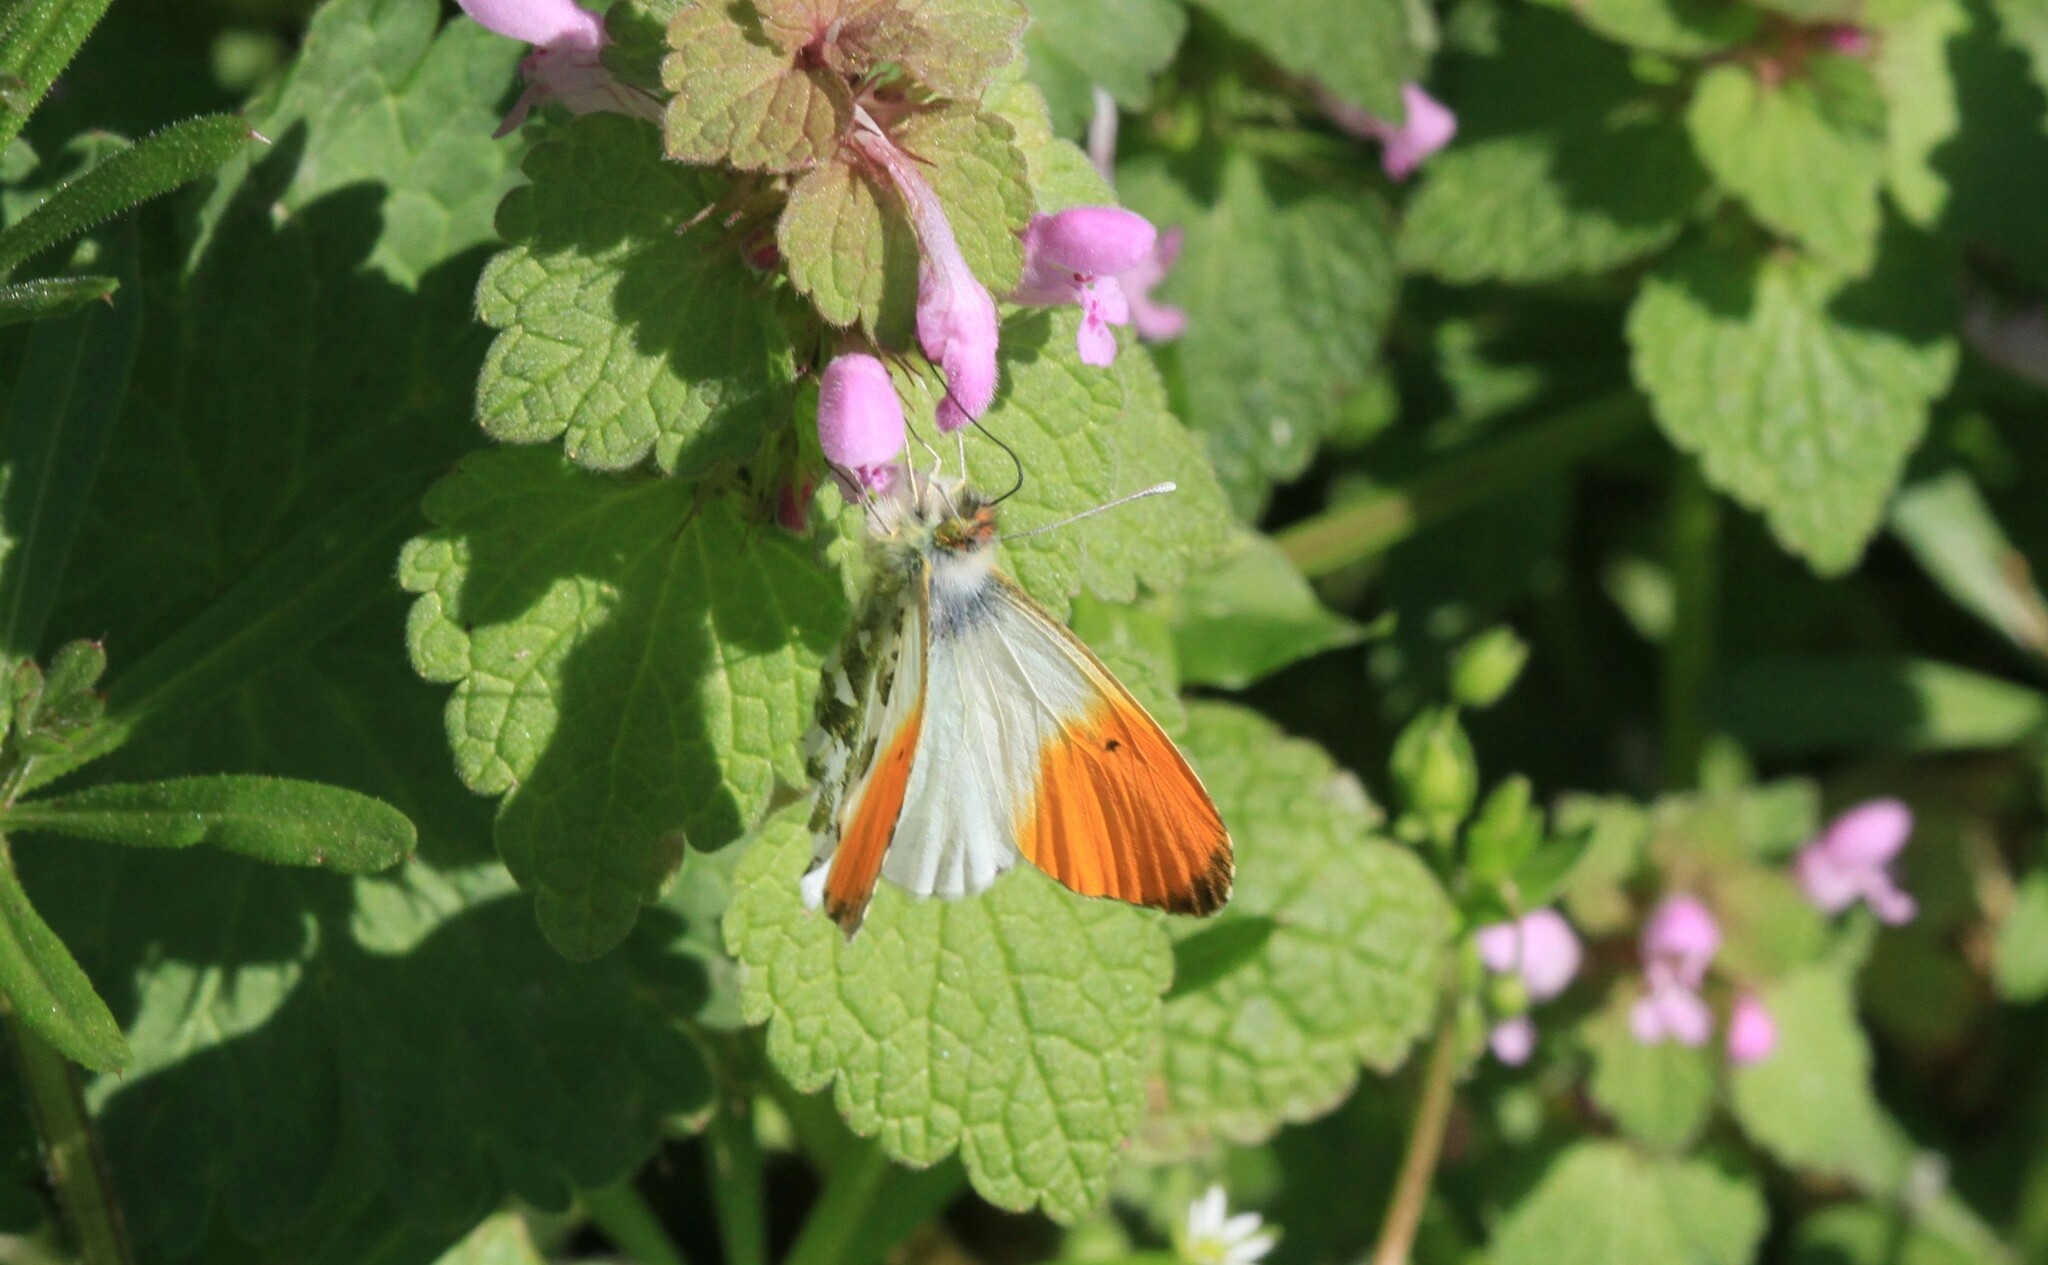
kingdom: Animalia
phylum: Arthropoda
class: Insecta
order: Lepidoptera
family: Pieridae
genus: Anthocharis
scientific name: Anthocharis cardamines
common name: Orange-tip
